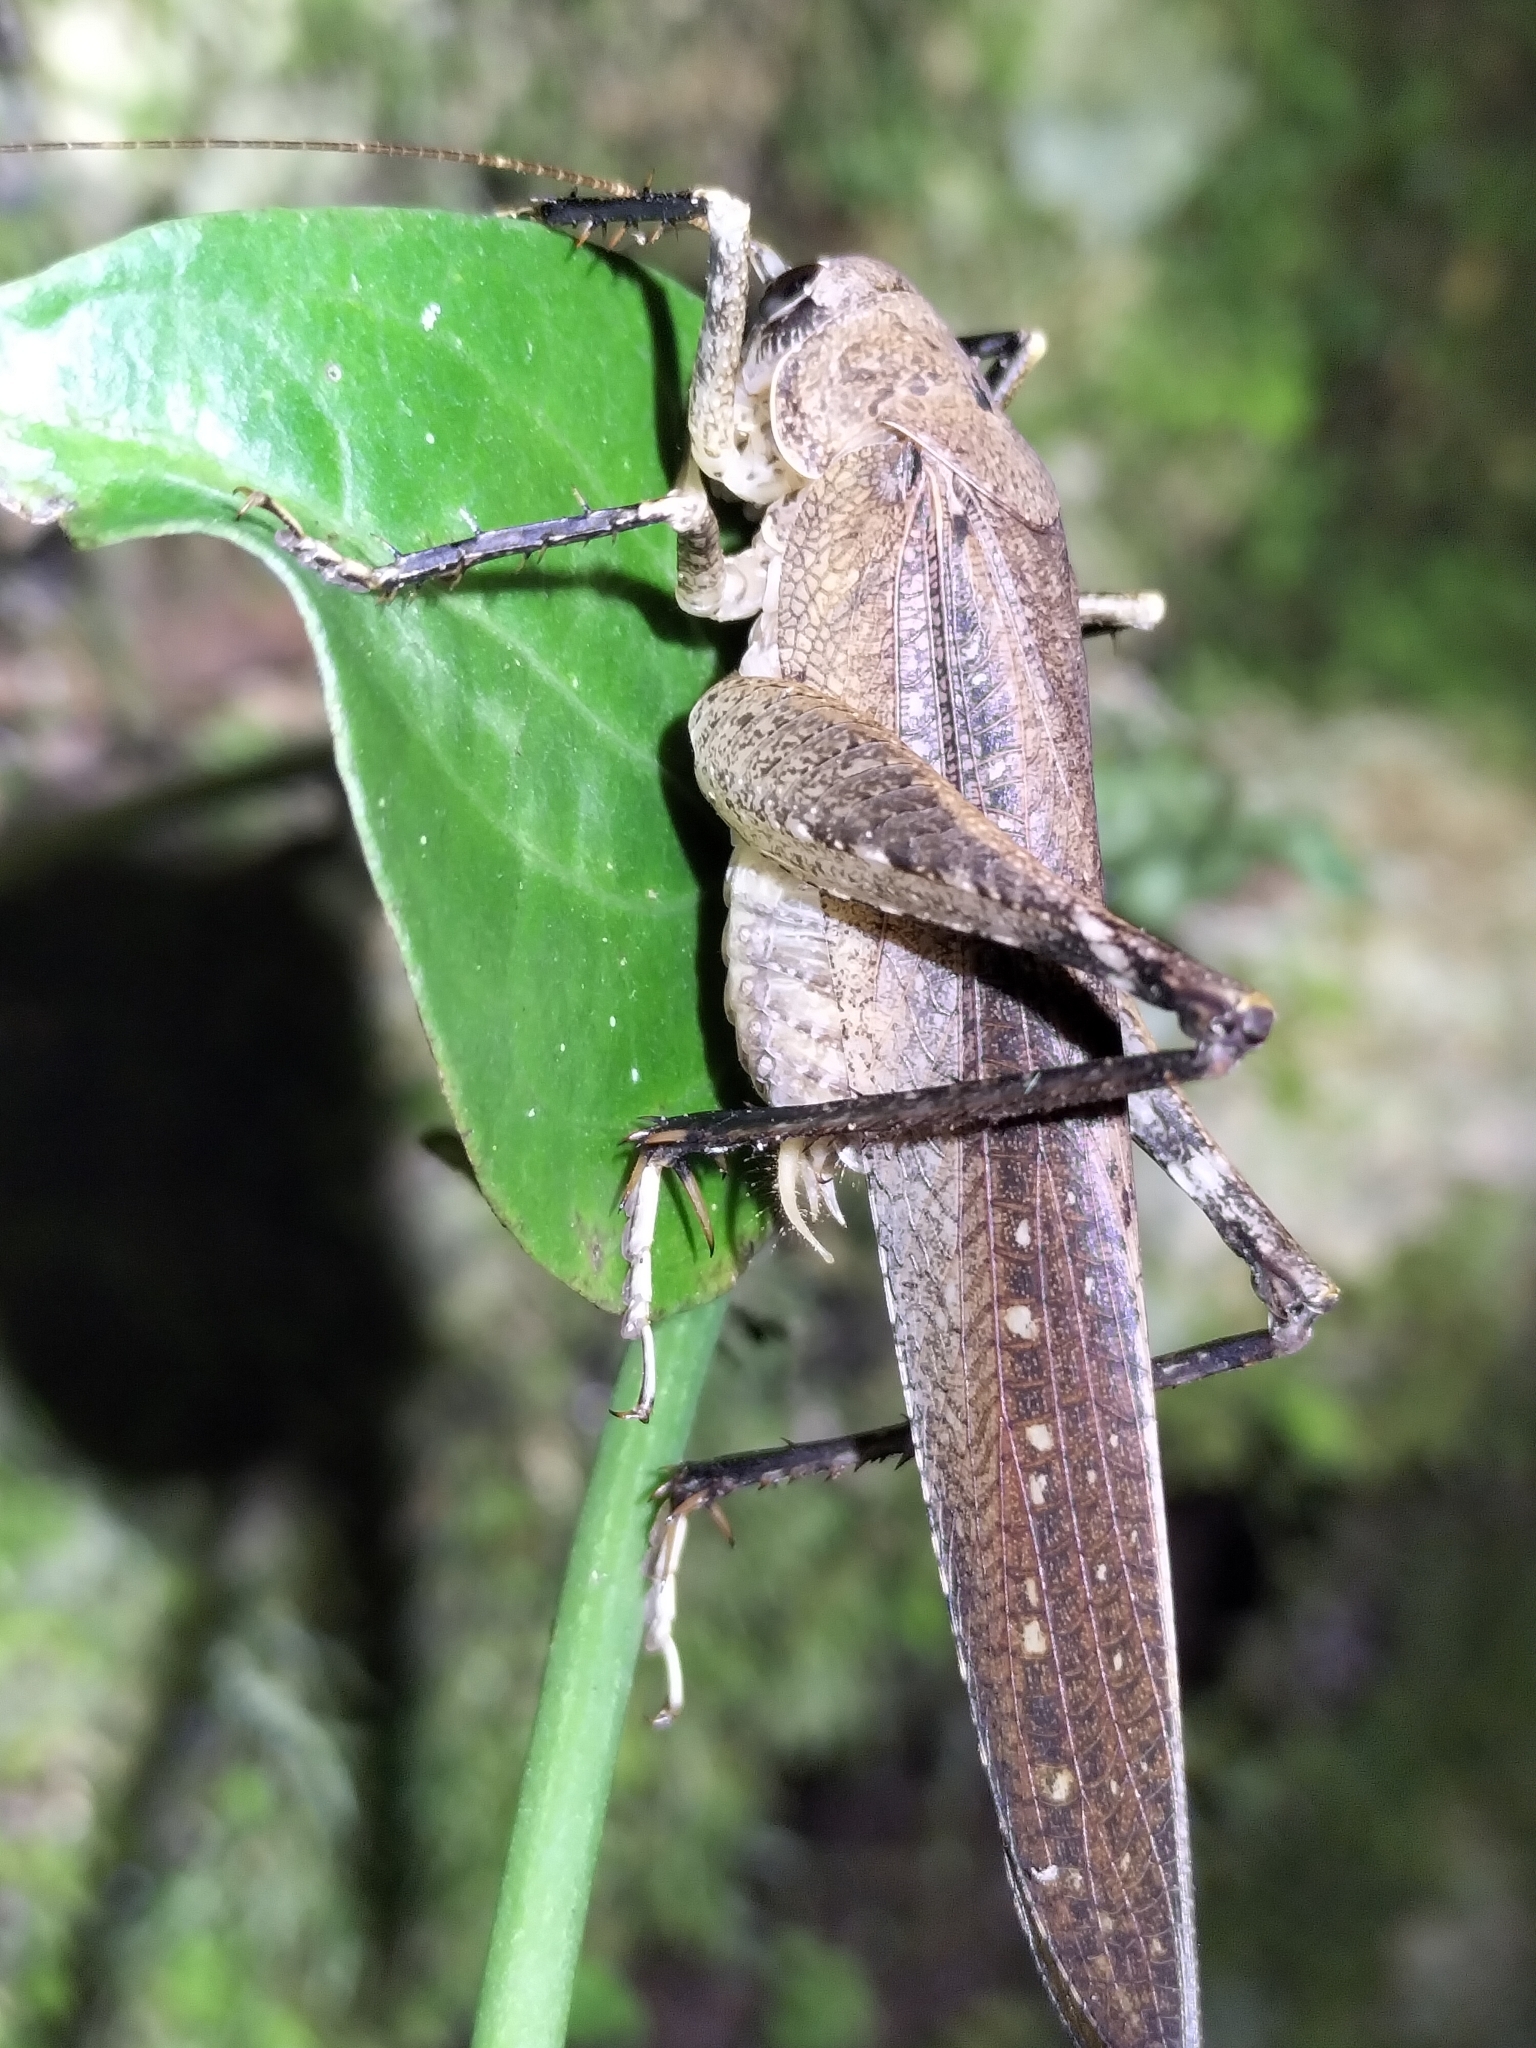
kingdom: Animalia
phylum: Arthropoda
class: Insecta
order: Orthoptera
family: Anostostomatidae
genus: Transaevum
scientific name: Transaevum laudatum
